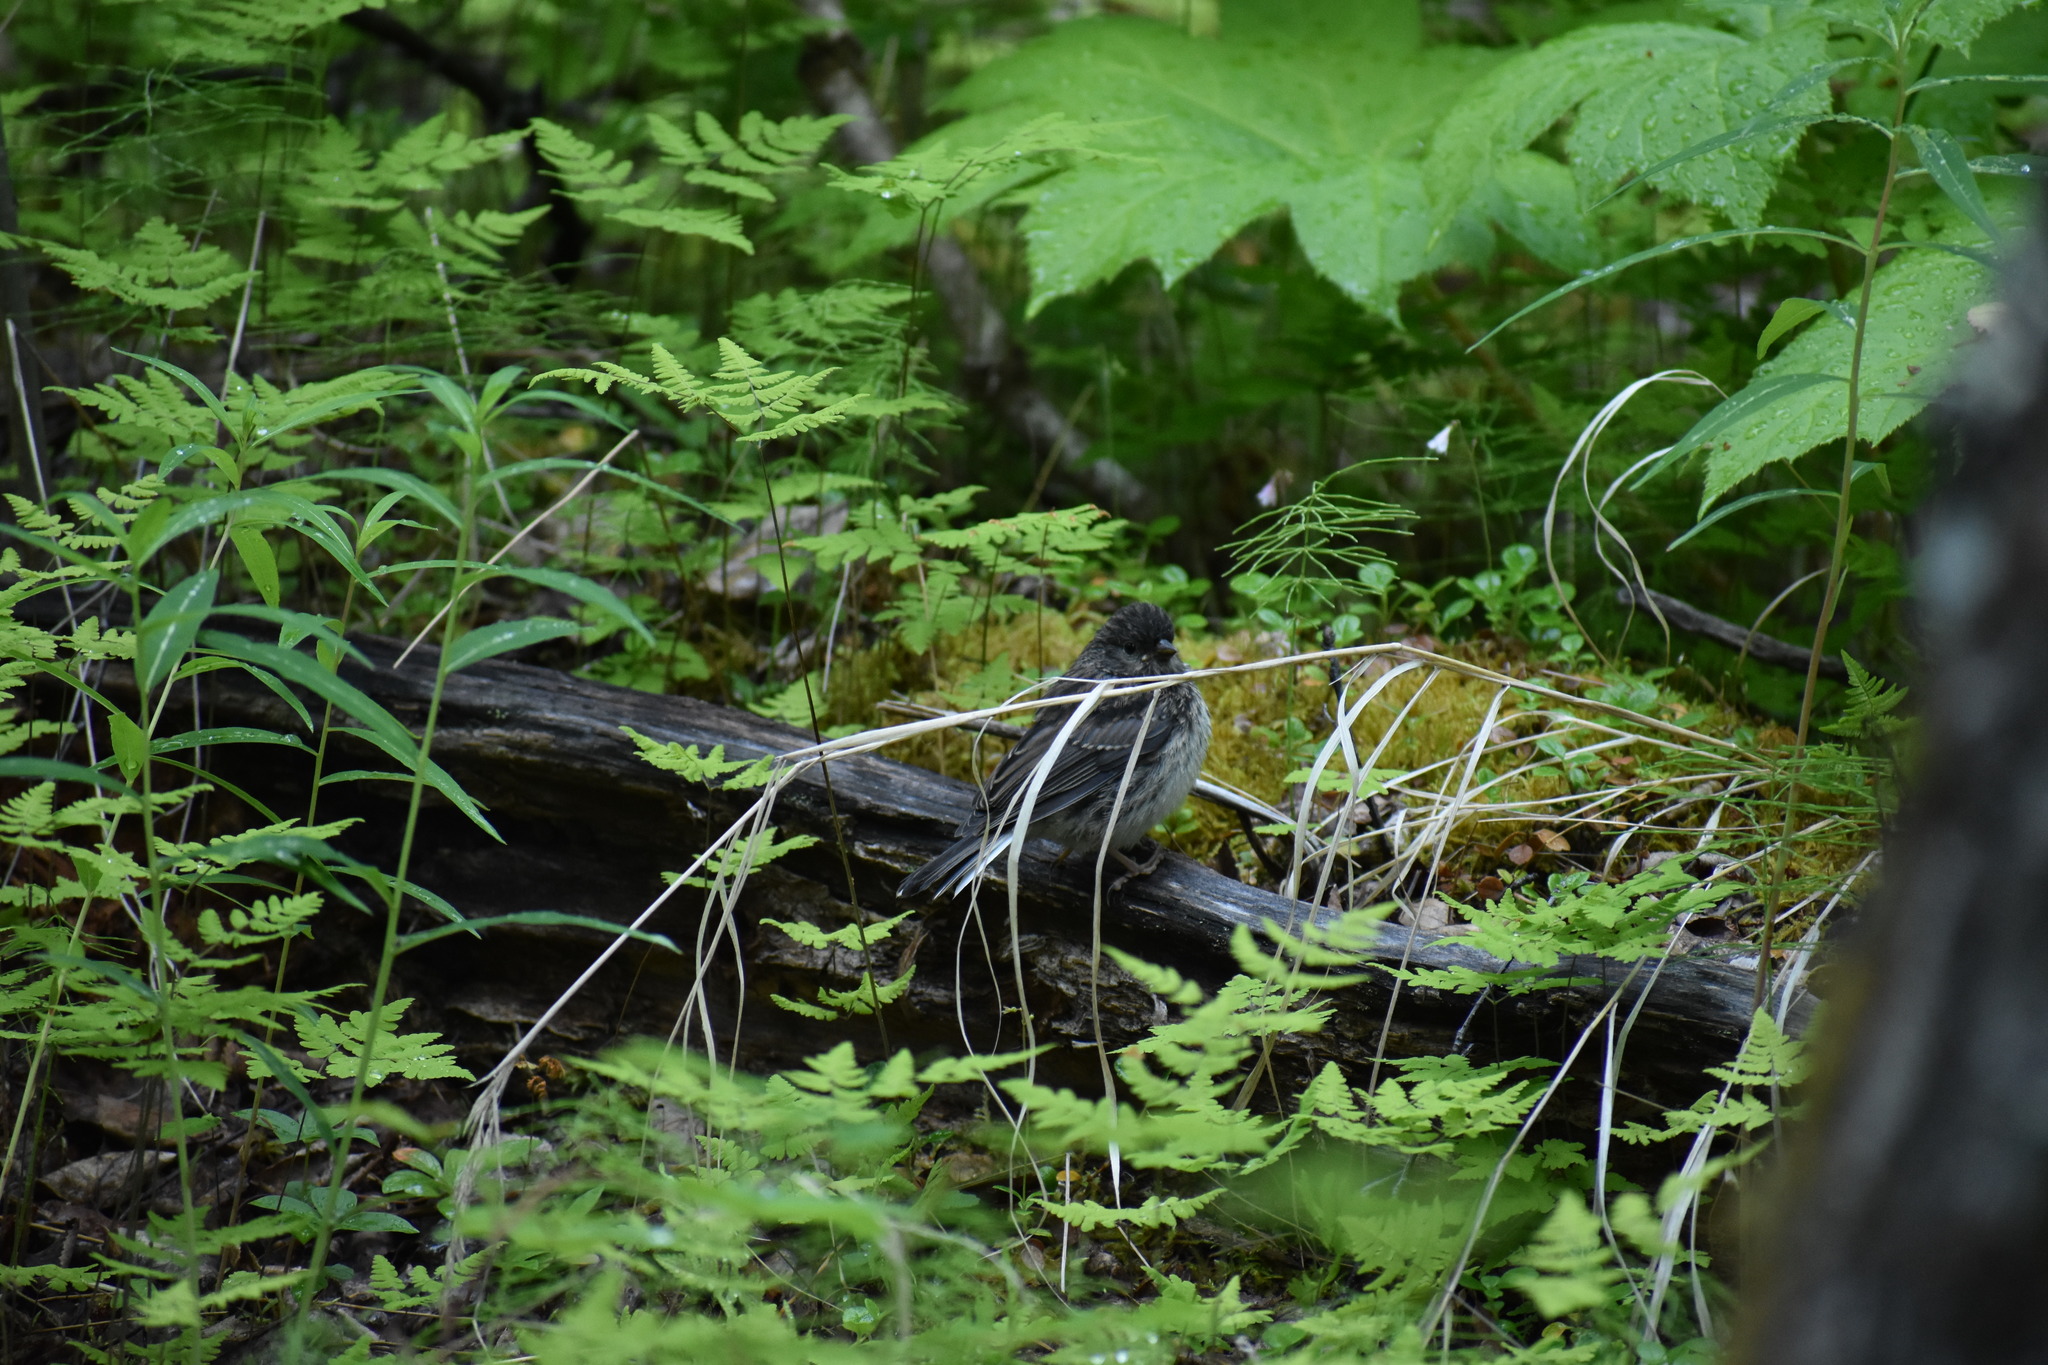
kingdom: Animalia
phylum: Chordata
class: Aves
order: Passeriformes
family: Passerellidae
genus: Junco
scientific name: Junco hyemalis
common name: Dark-eyed junco
